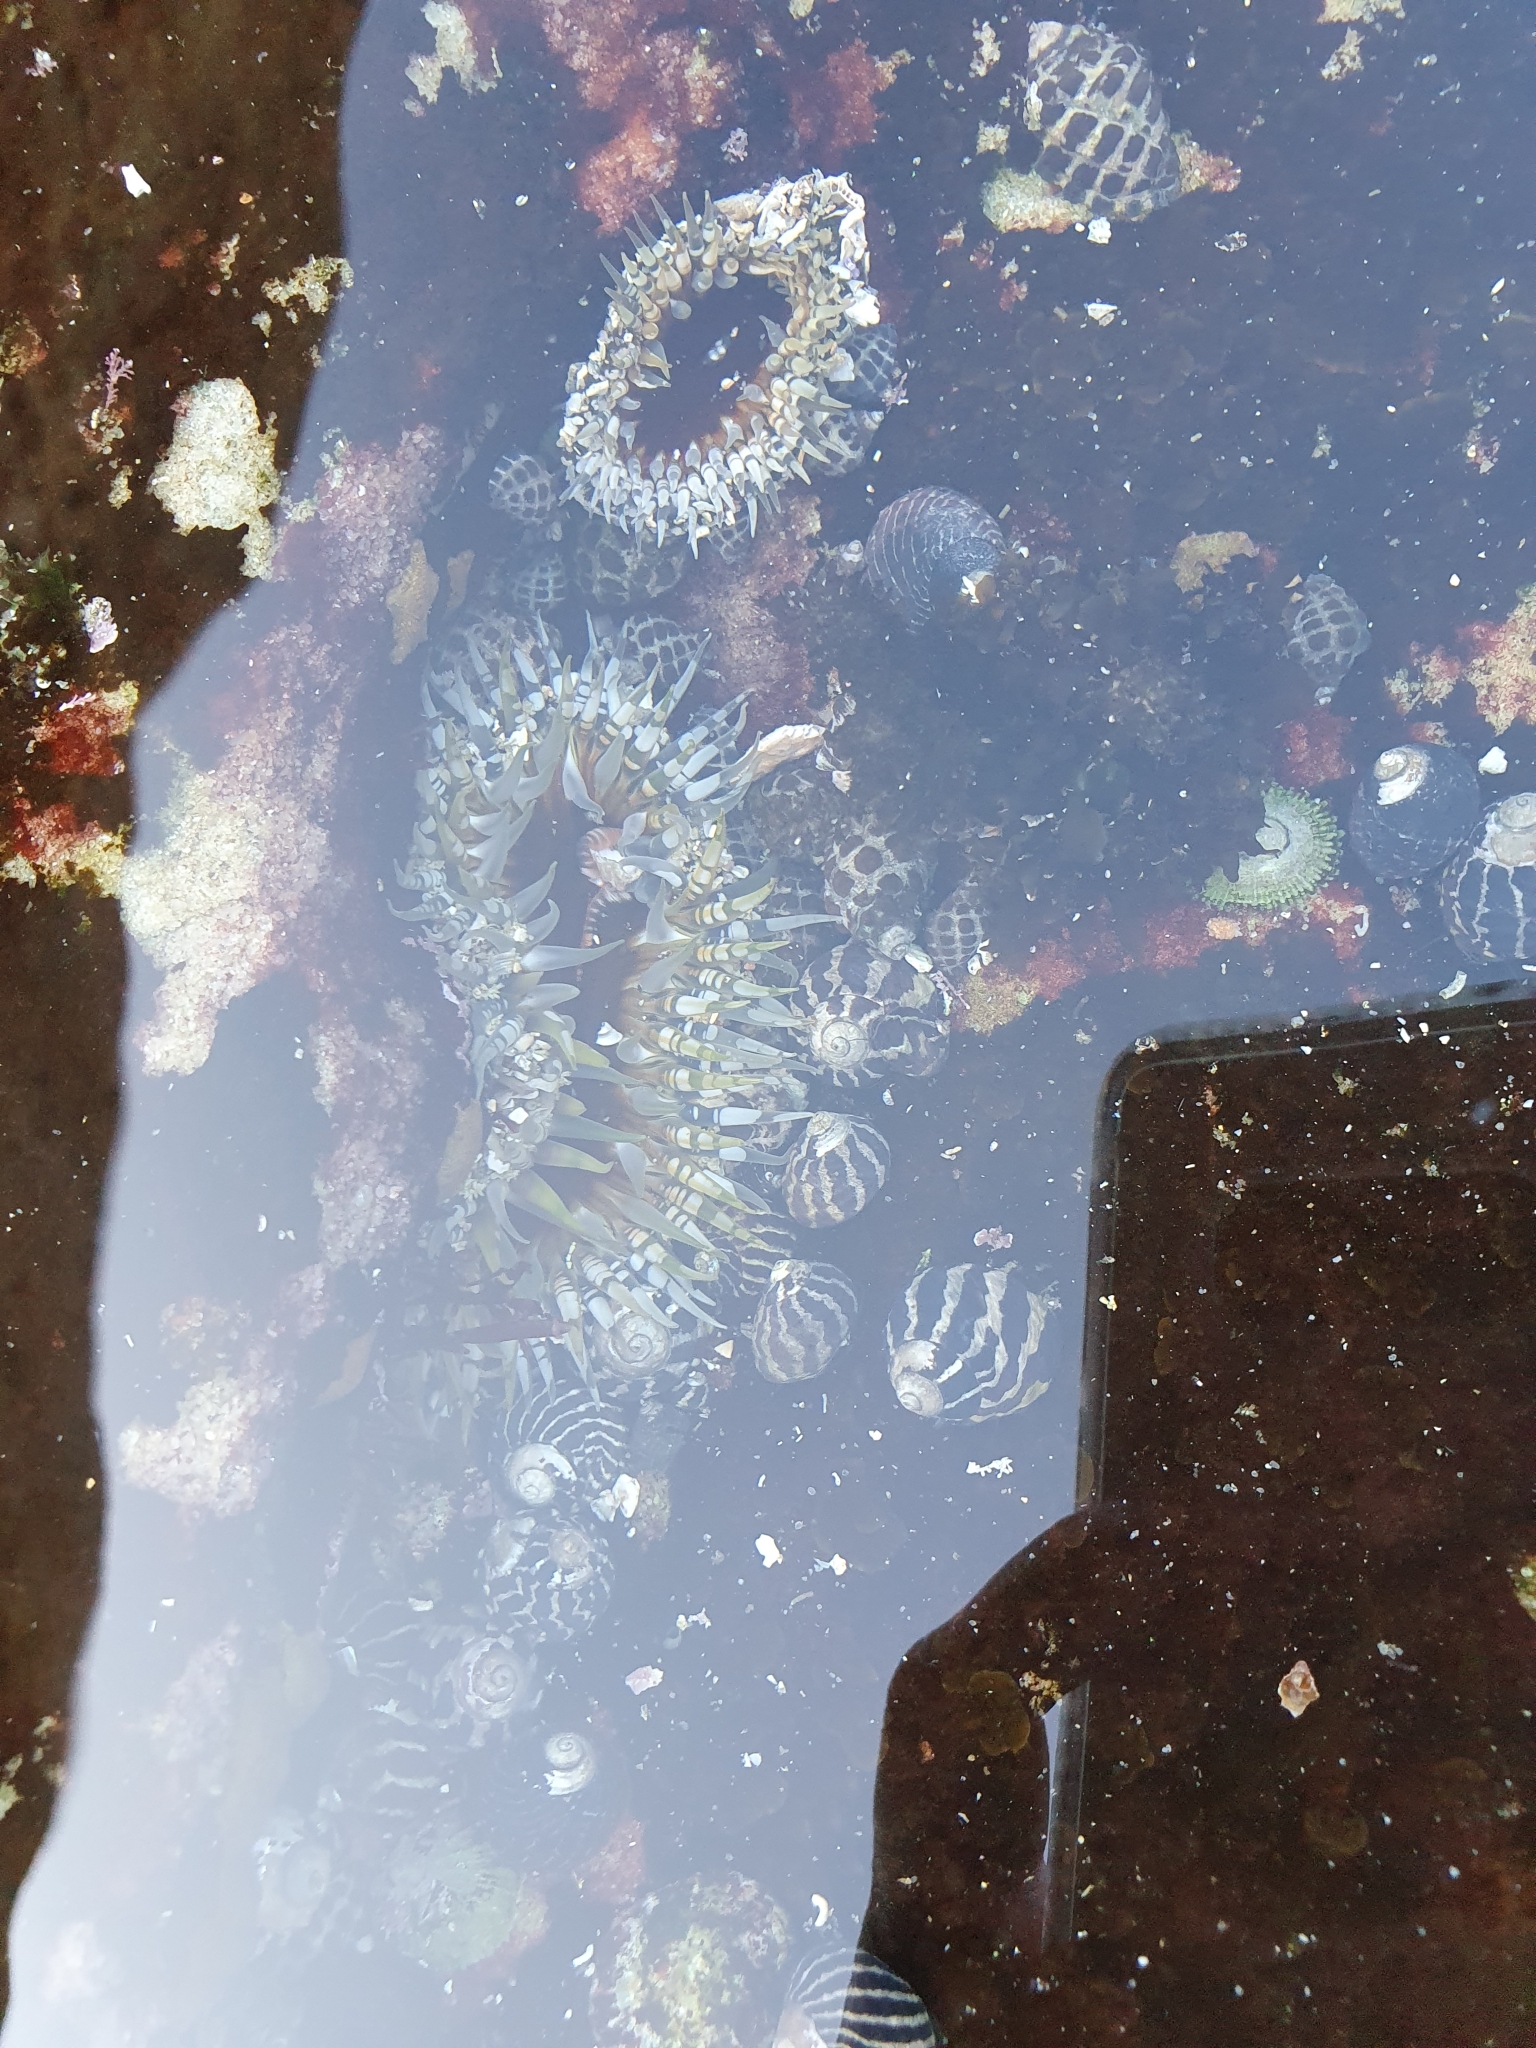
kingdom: Animalia
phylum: Cnidaria
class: Anthozoa
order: Actiniaria
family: Actiniidae
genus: Oulactis
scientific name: Oulactis muscosa
